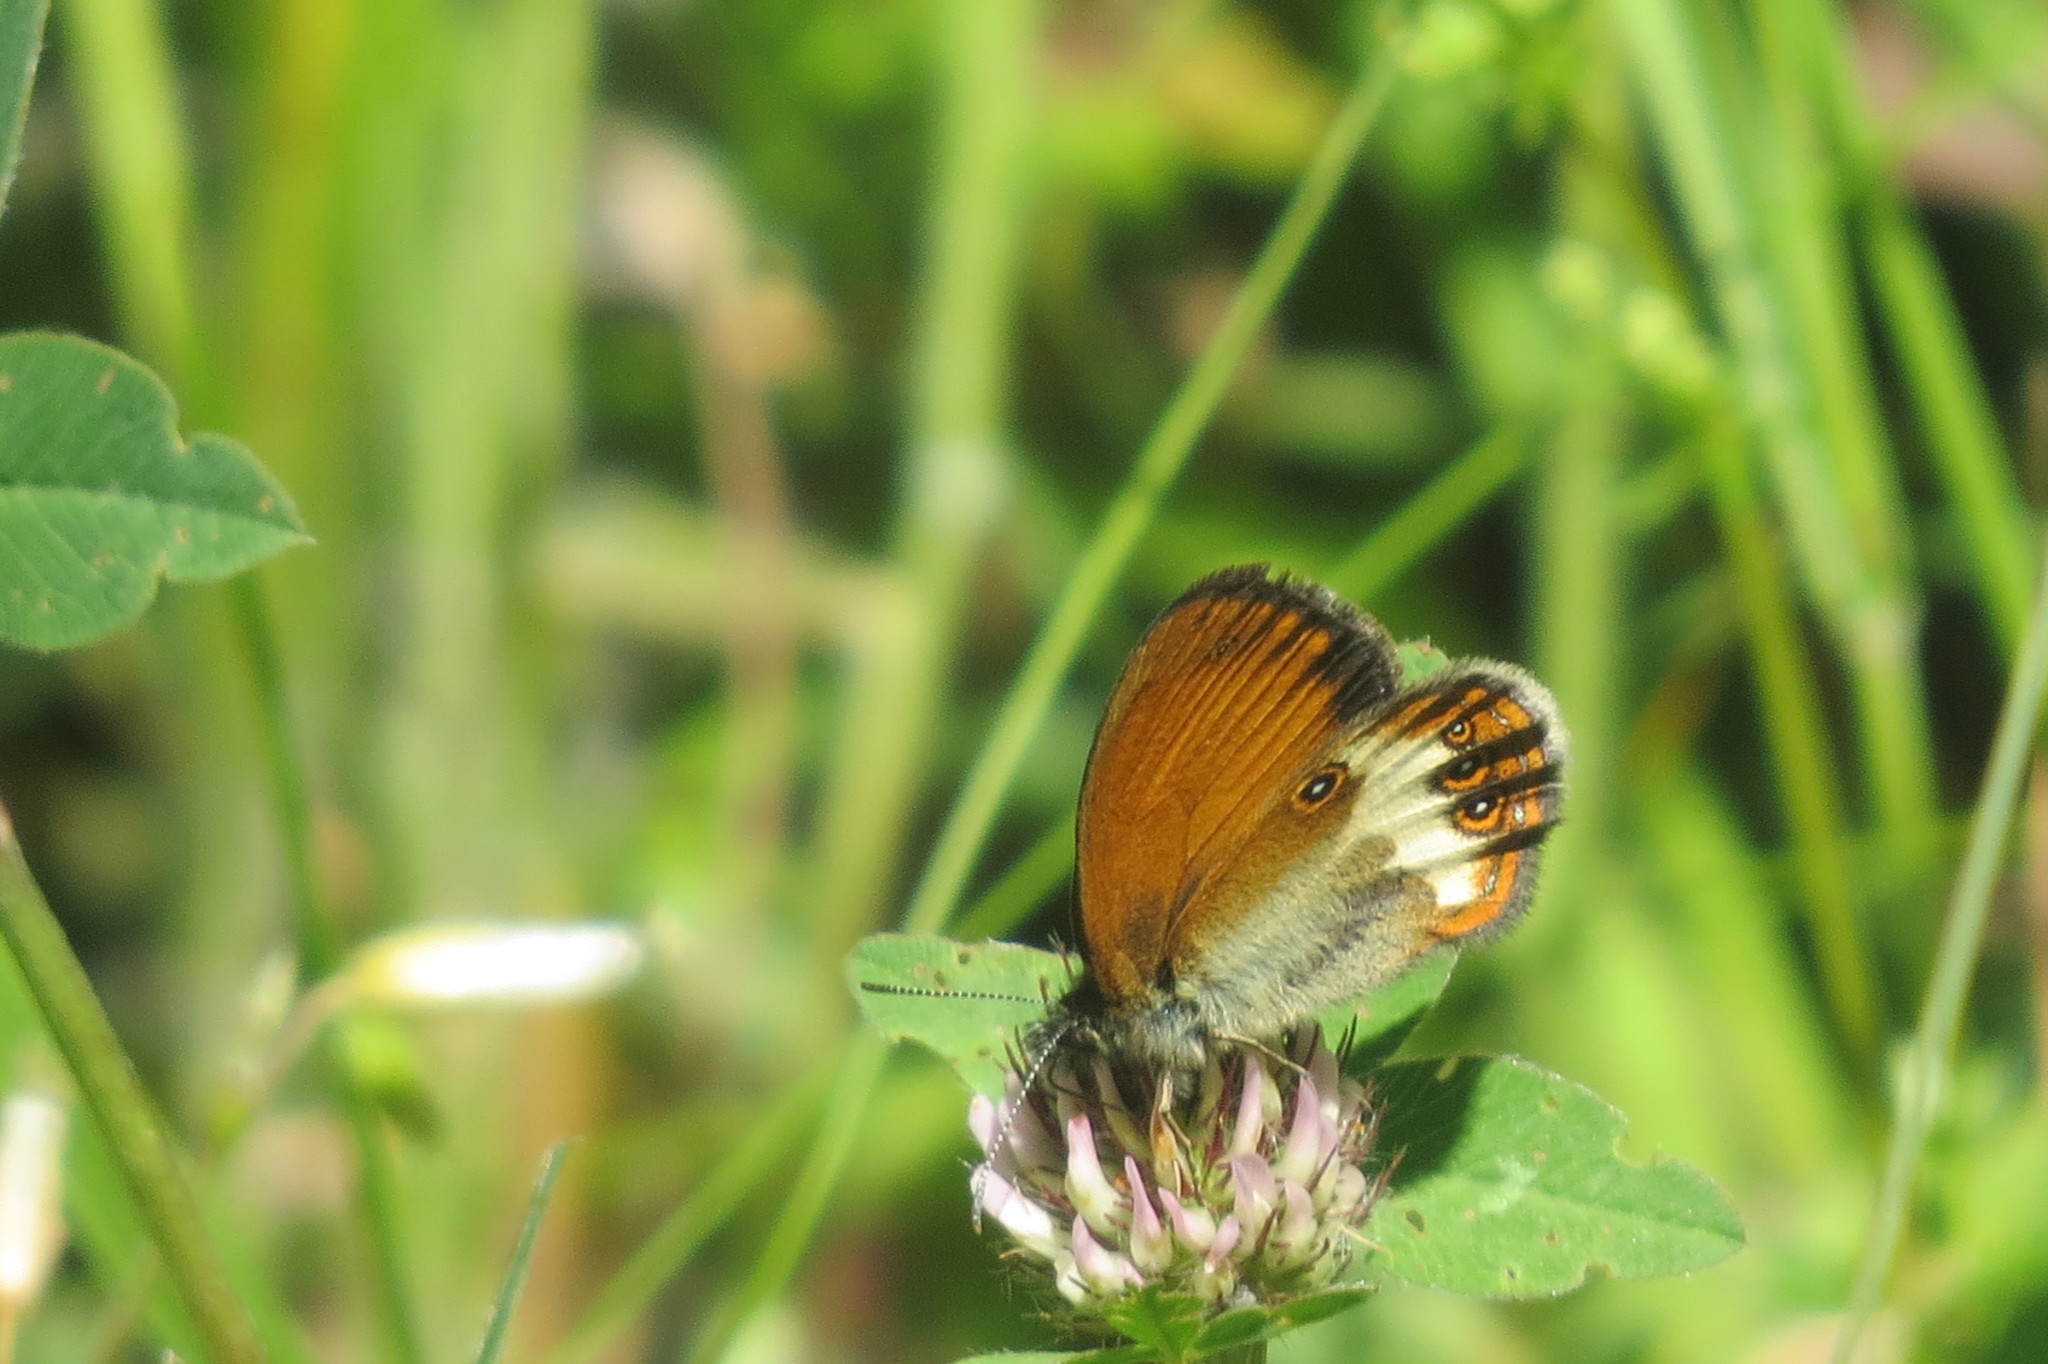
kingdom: Animalia
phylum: Arthropoda
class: Insecta
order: Lepidoptera
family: Nymphalidae
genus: Coenonympha
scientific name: Coenonympha arcania
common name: Pearly heath
